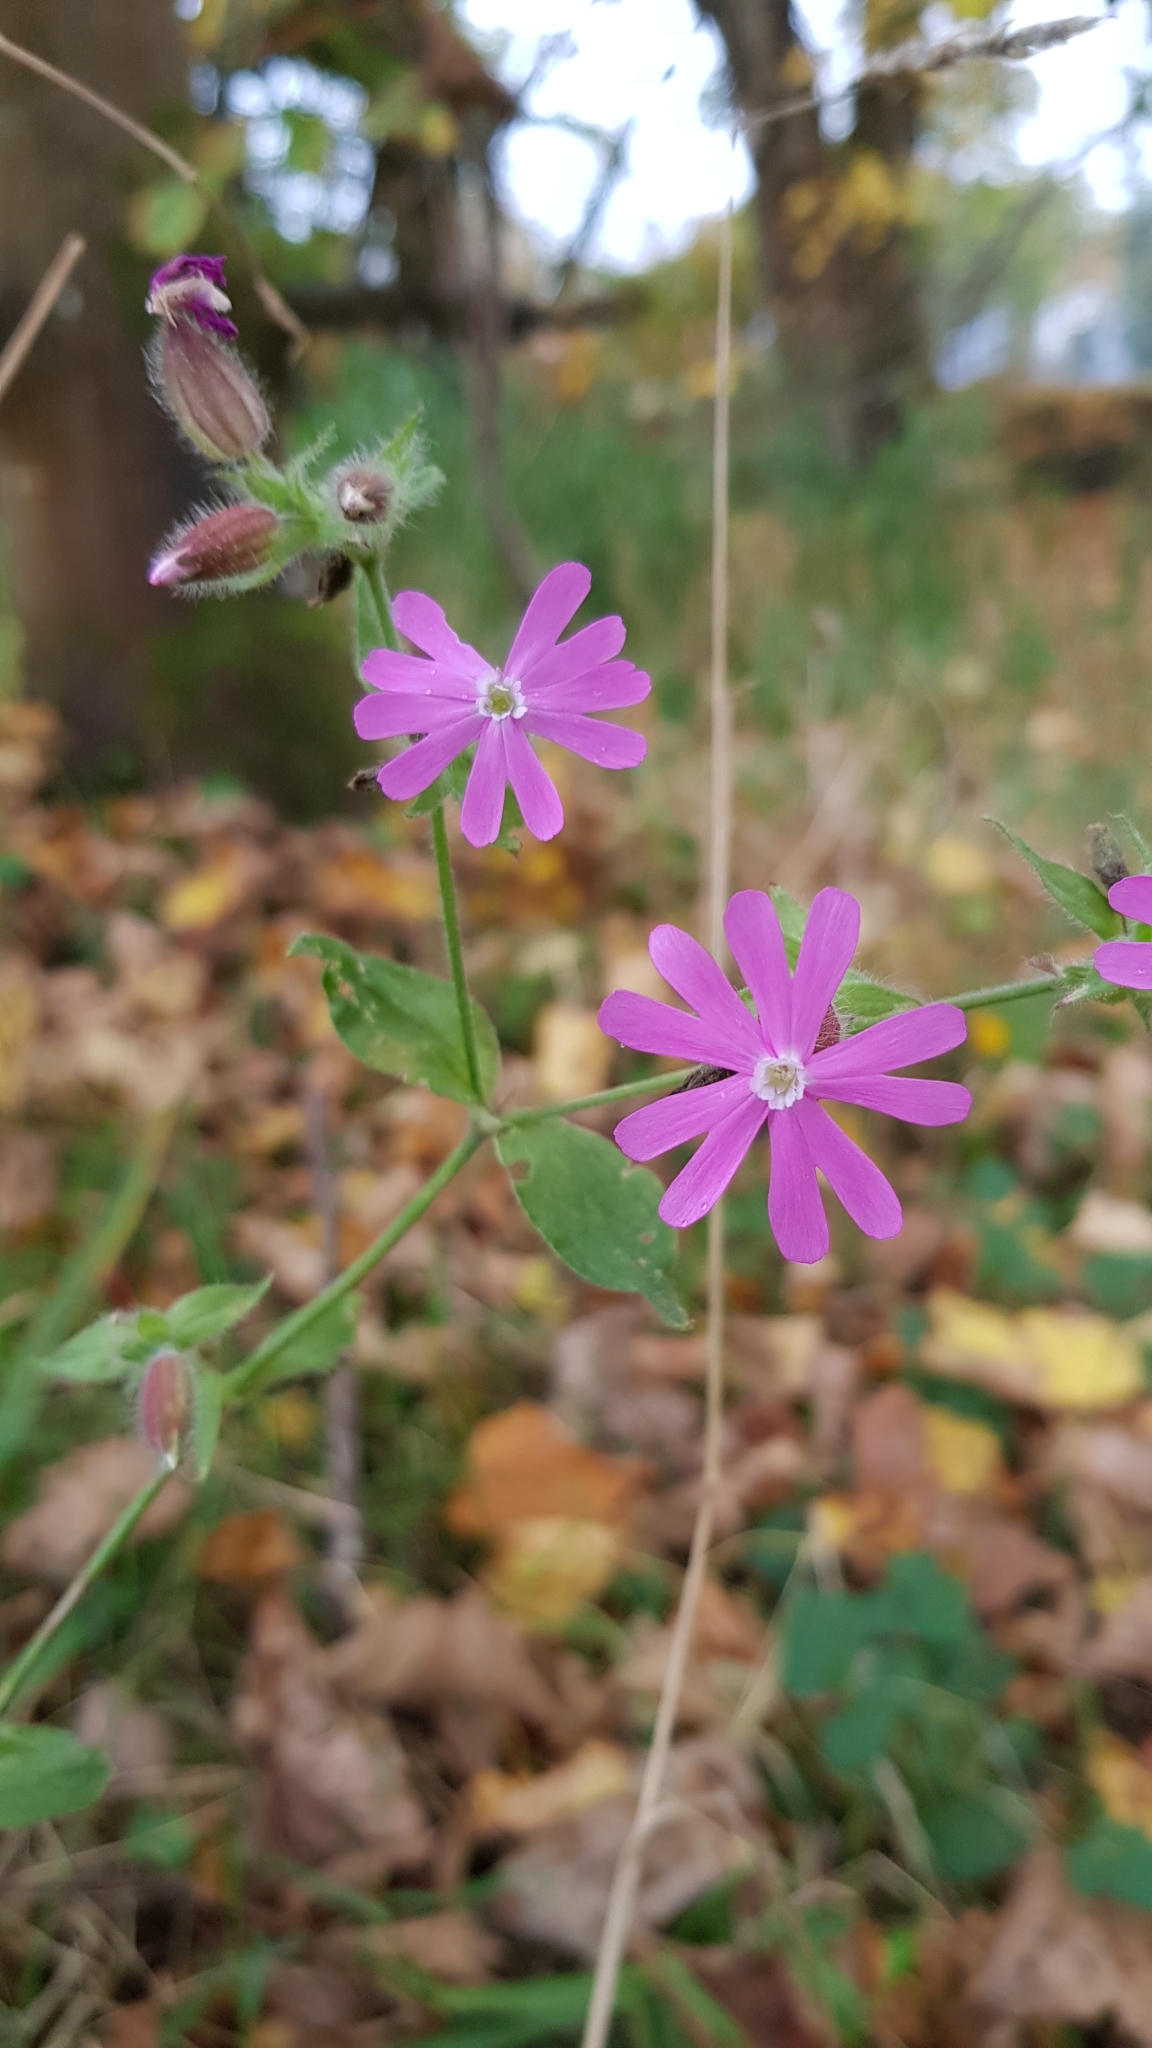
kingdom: Plantae
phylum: Tracheophyta
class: Magnoliopsida
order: Caryophyllales
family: Caryophyllaceae
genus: Silene
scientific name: Silene dioica
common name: Red campion
